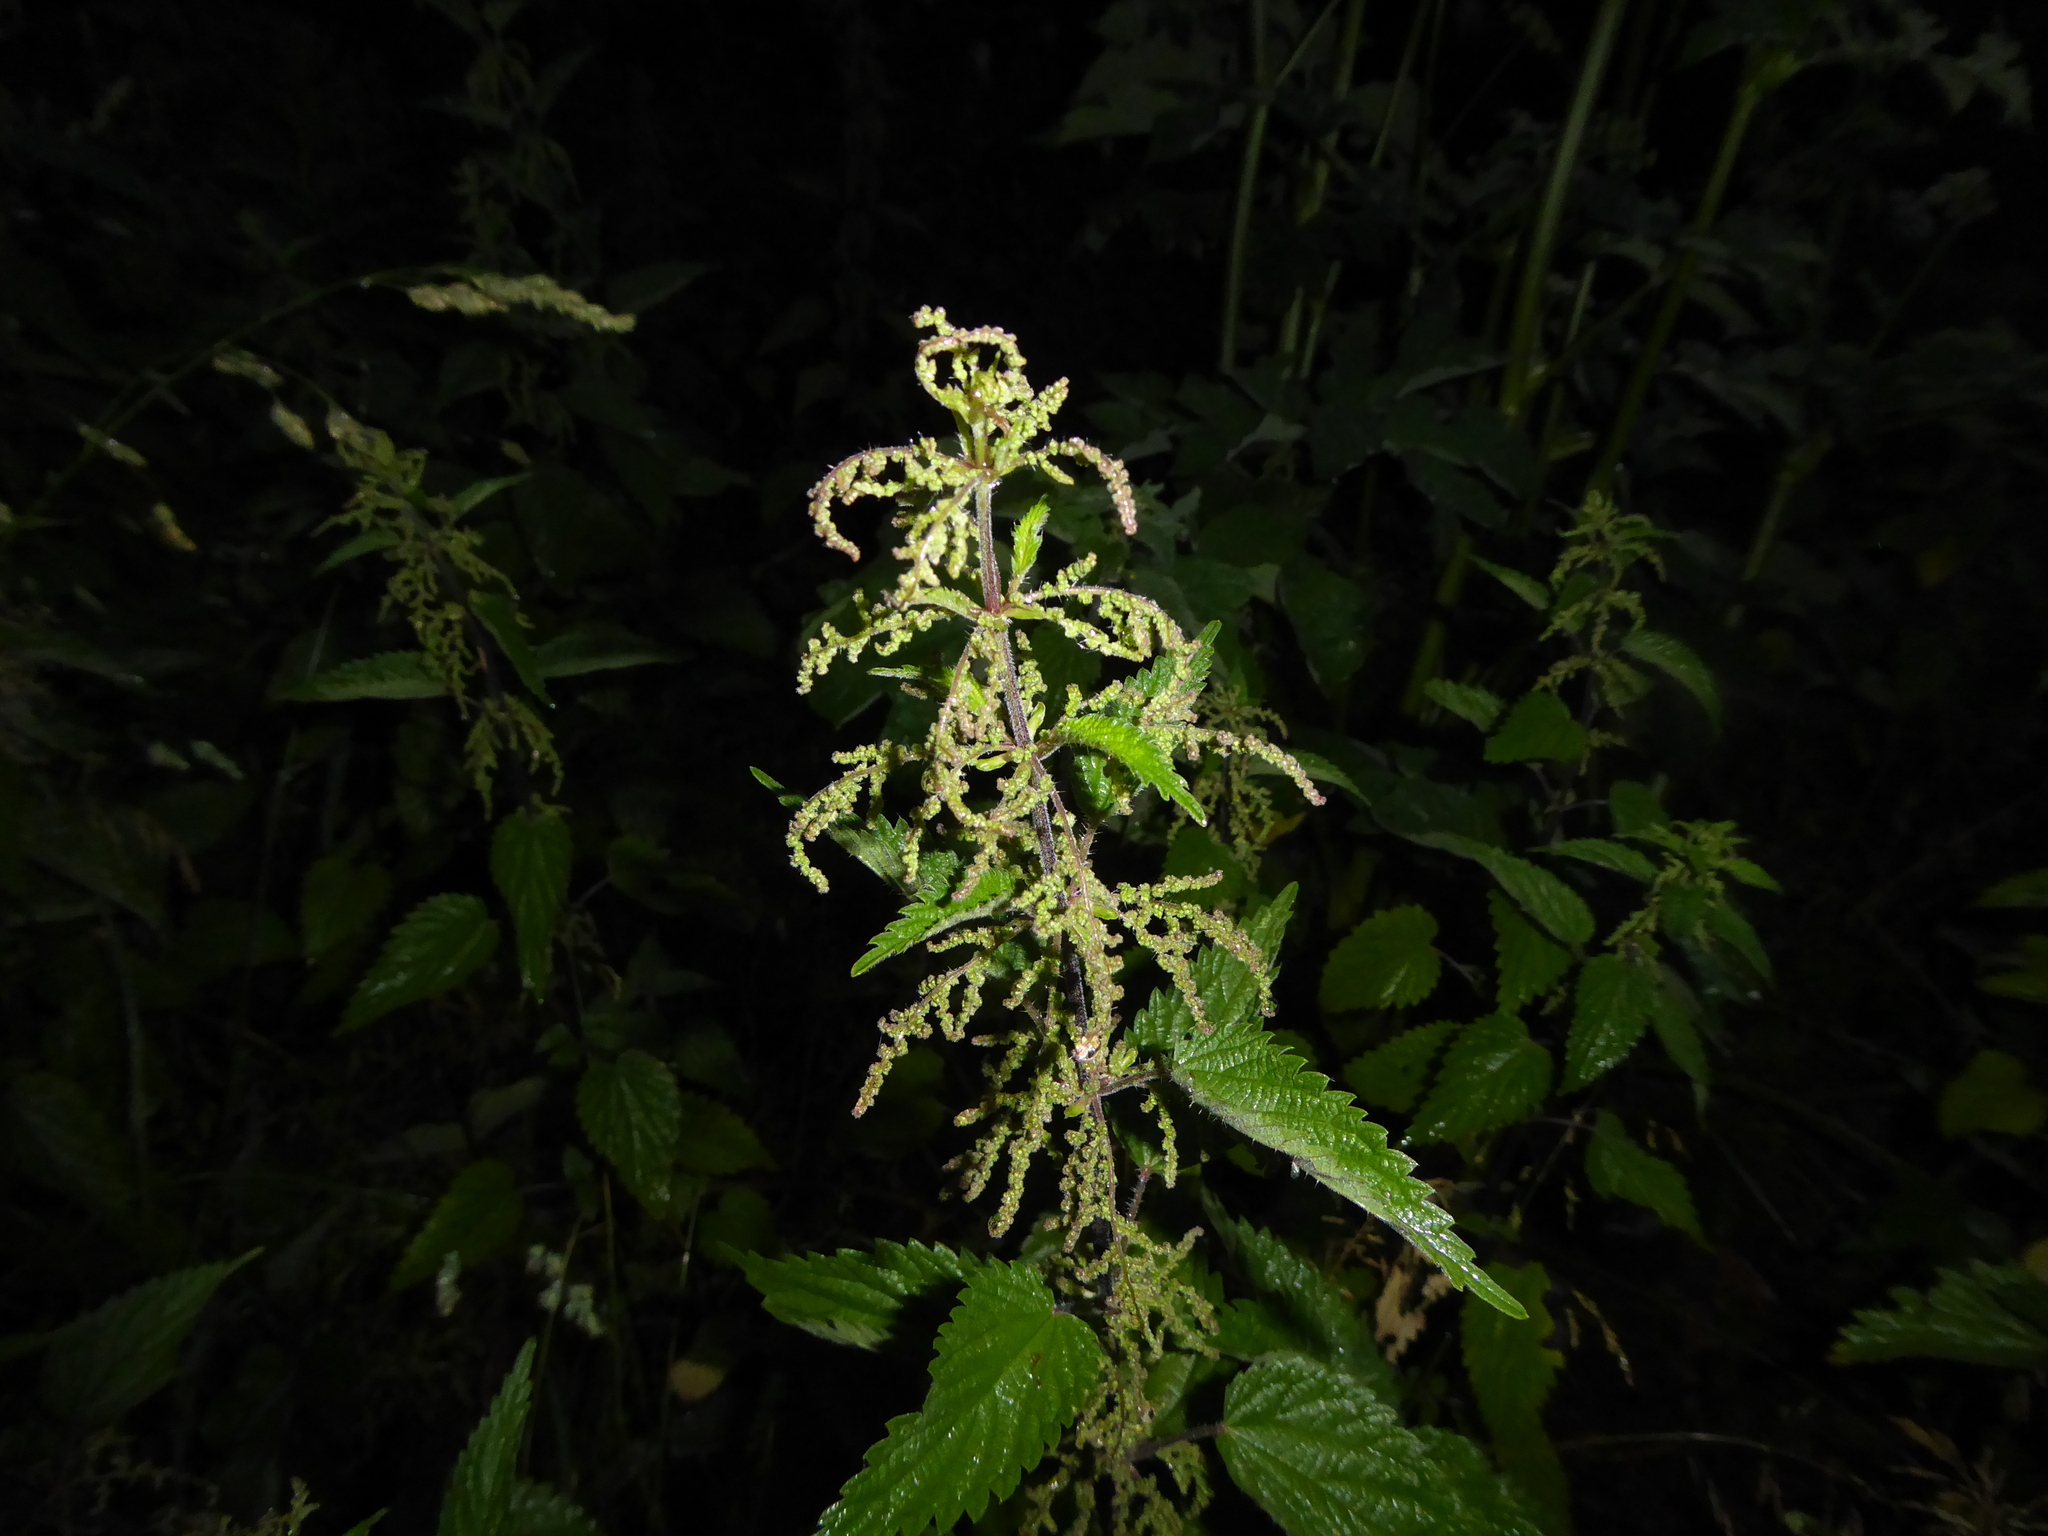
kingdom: Plantae
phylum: Tracheophyta
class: Magnoliopsida
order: Rosales
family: Urticaceae
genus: Urtica
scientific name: Urtica dioica
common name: Common nettle
